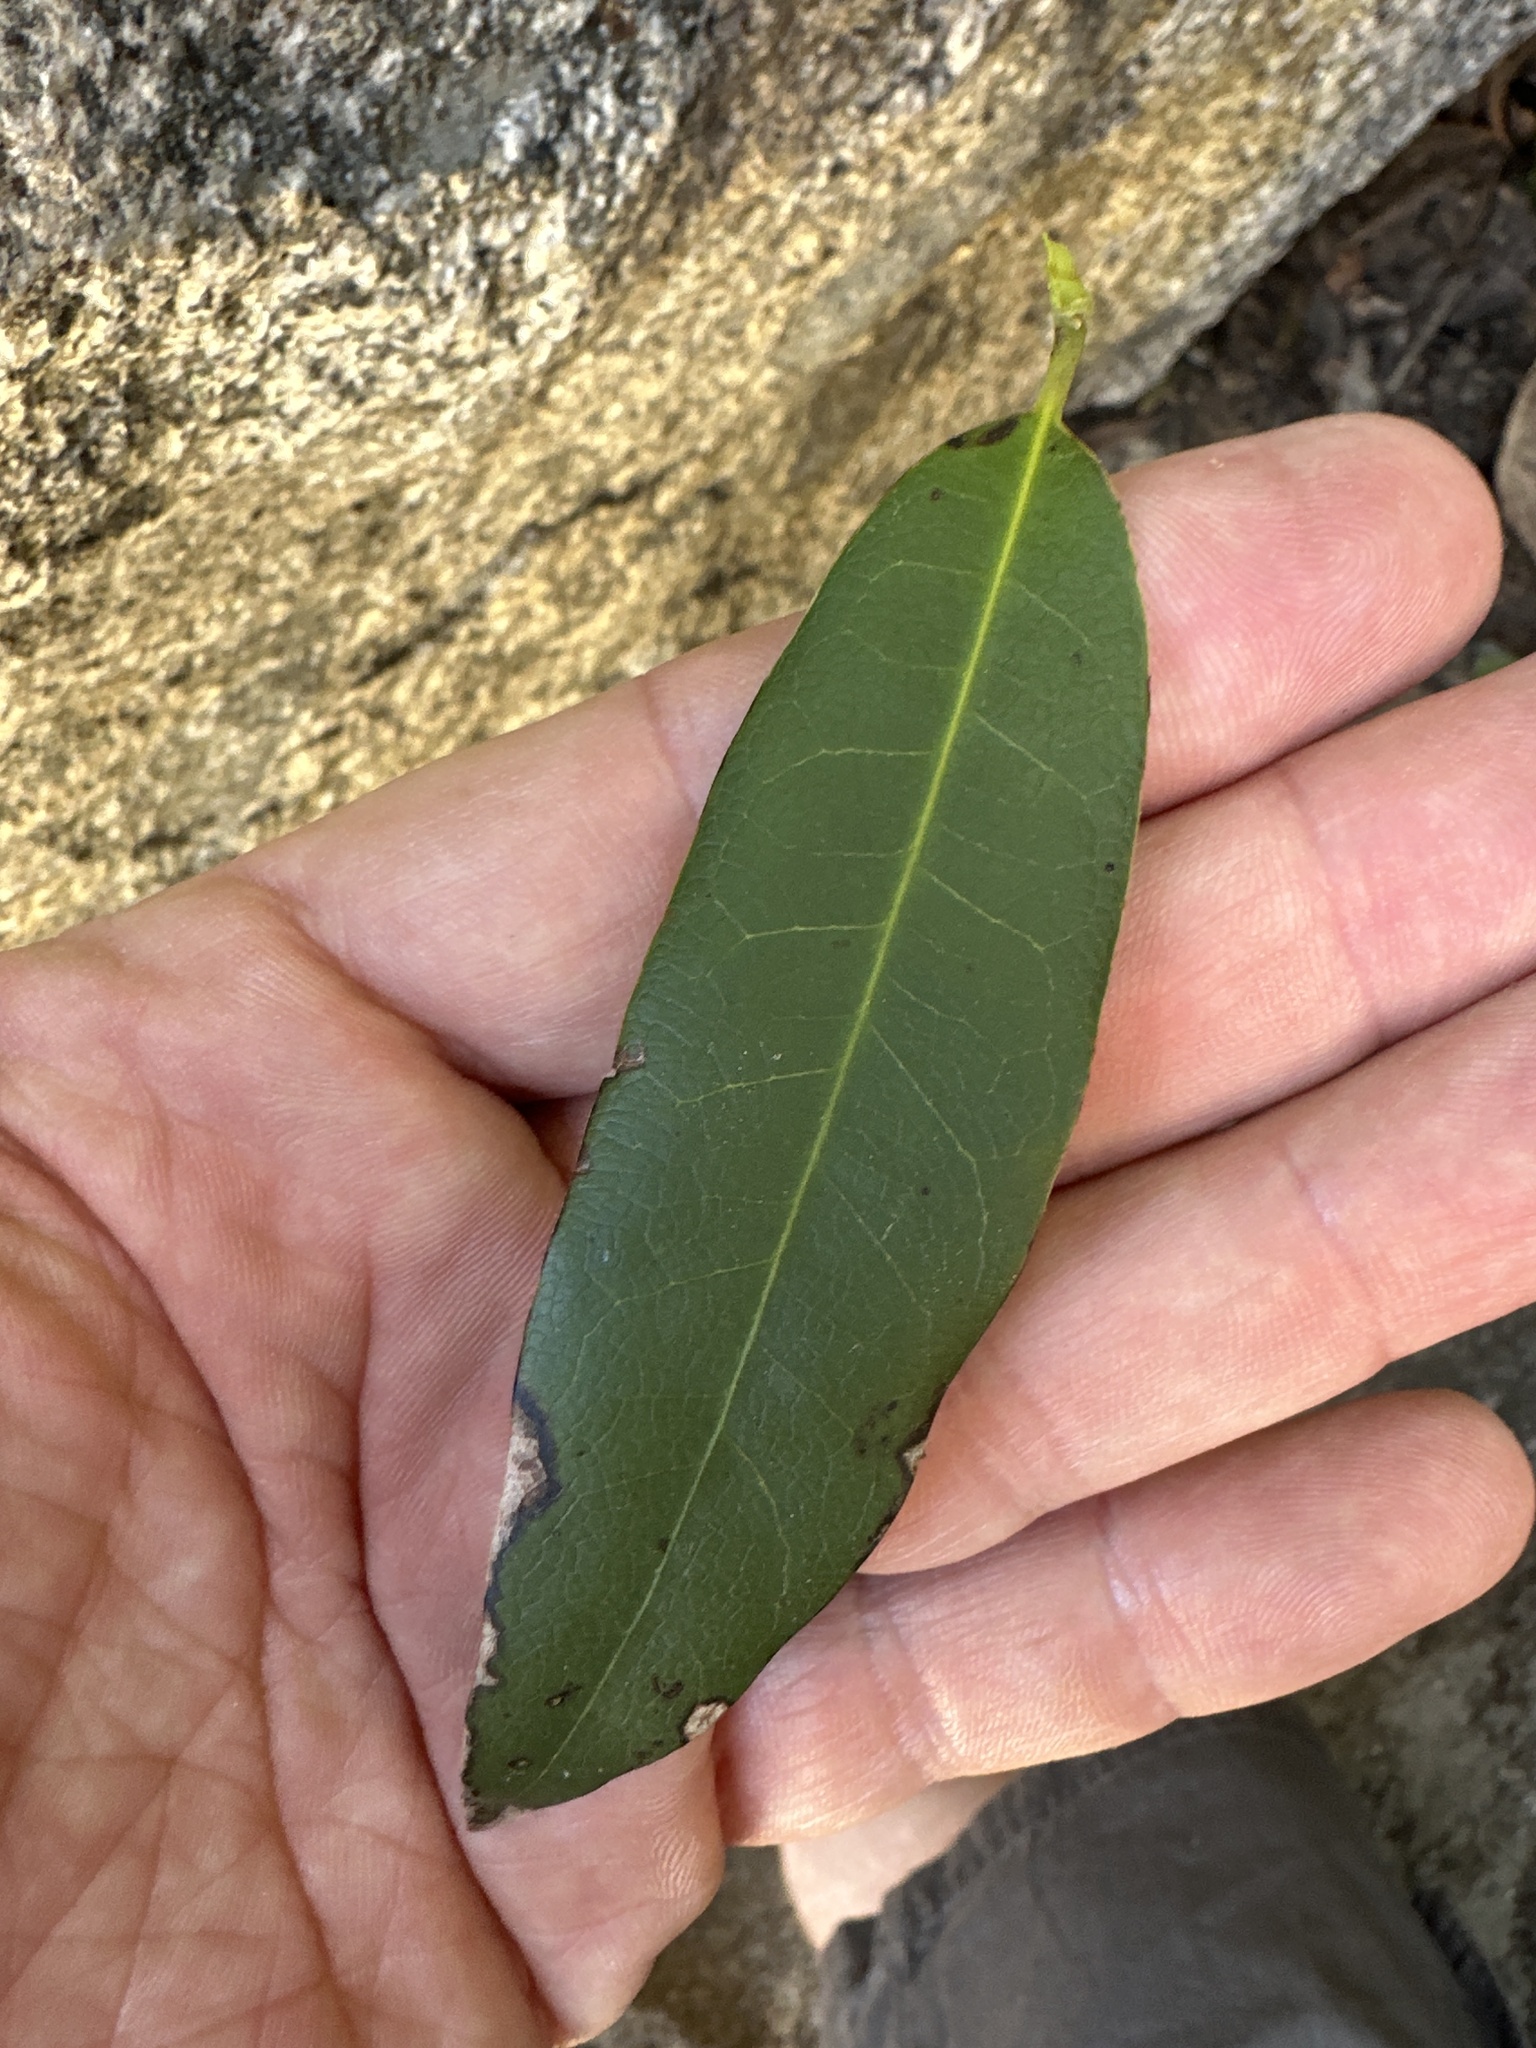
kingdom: Plantae
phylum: Tracheophyta
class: Magnoliopsida
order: Laurales
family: Lauraceae
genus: Umbellularia
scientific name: Umbellularia californica
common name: California bay
